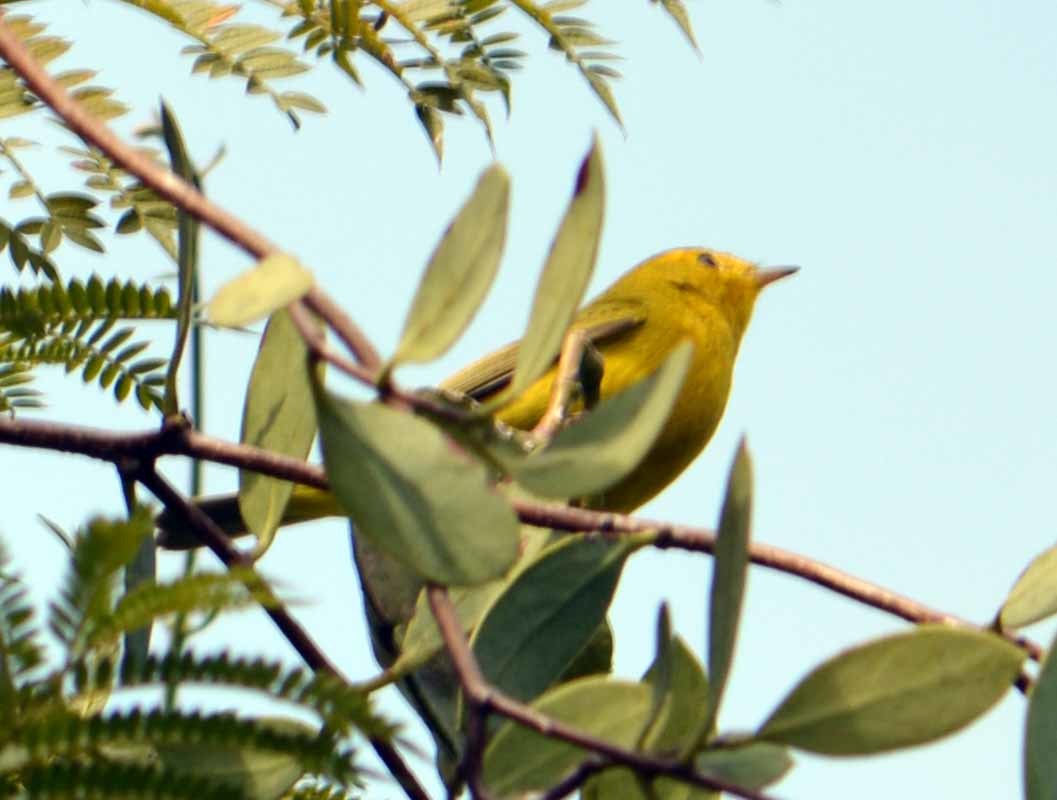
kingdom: Animalia
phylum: Chordata
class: Aves
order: Passeriformes
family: Parulidae
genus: Cardellina
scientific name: Cardellina pusilla
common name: Wilson's warbler
